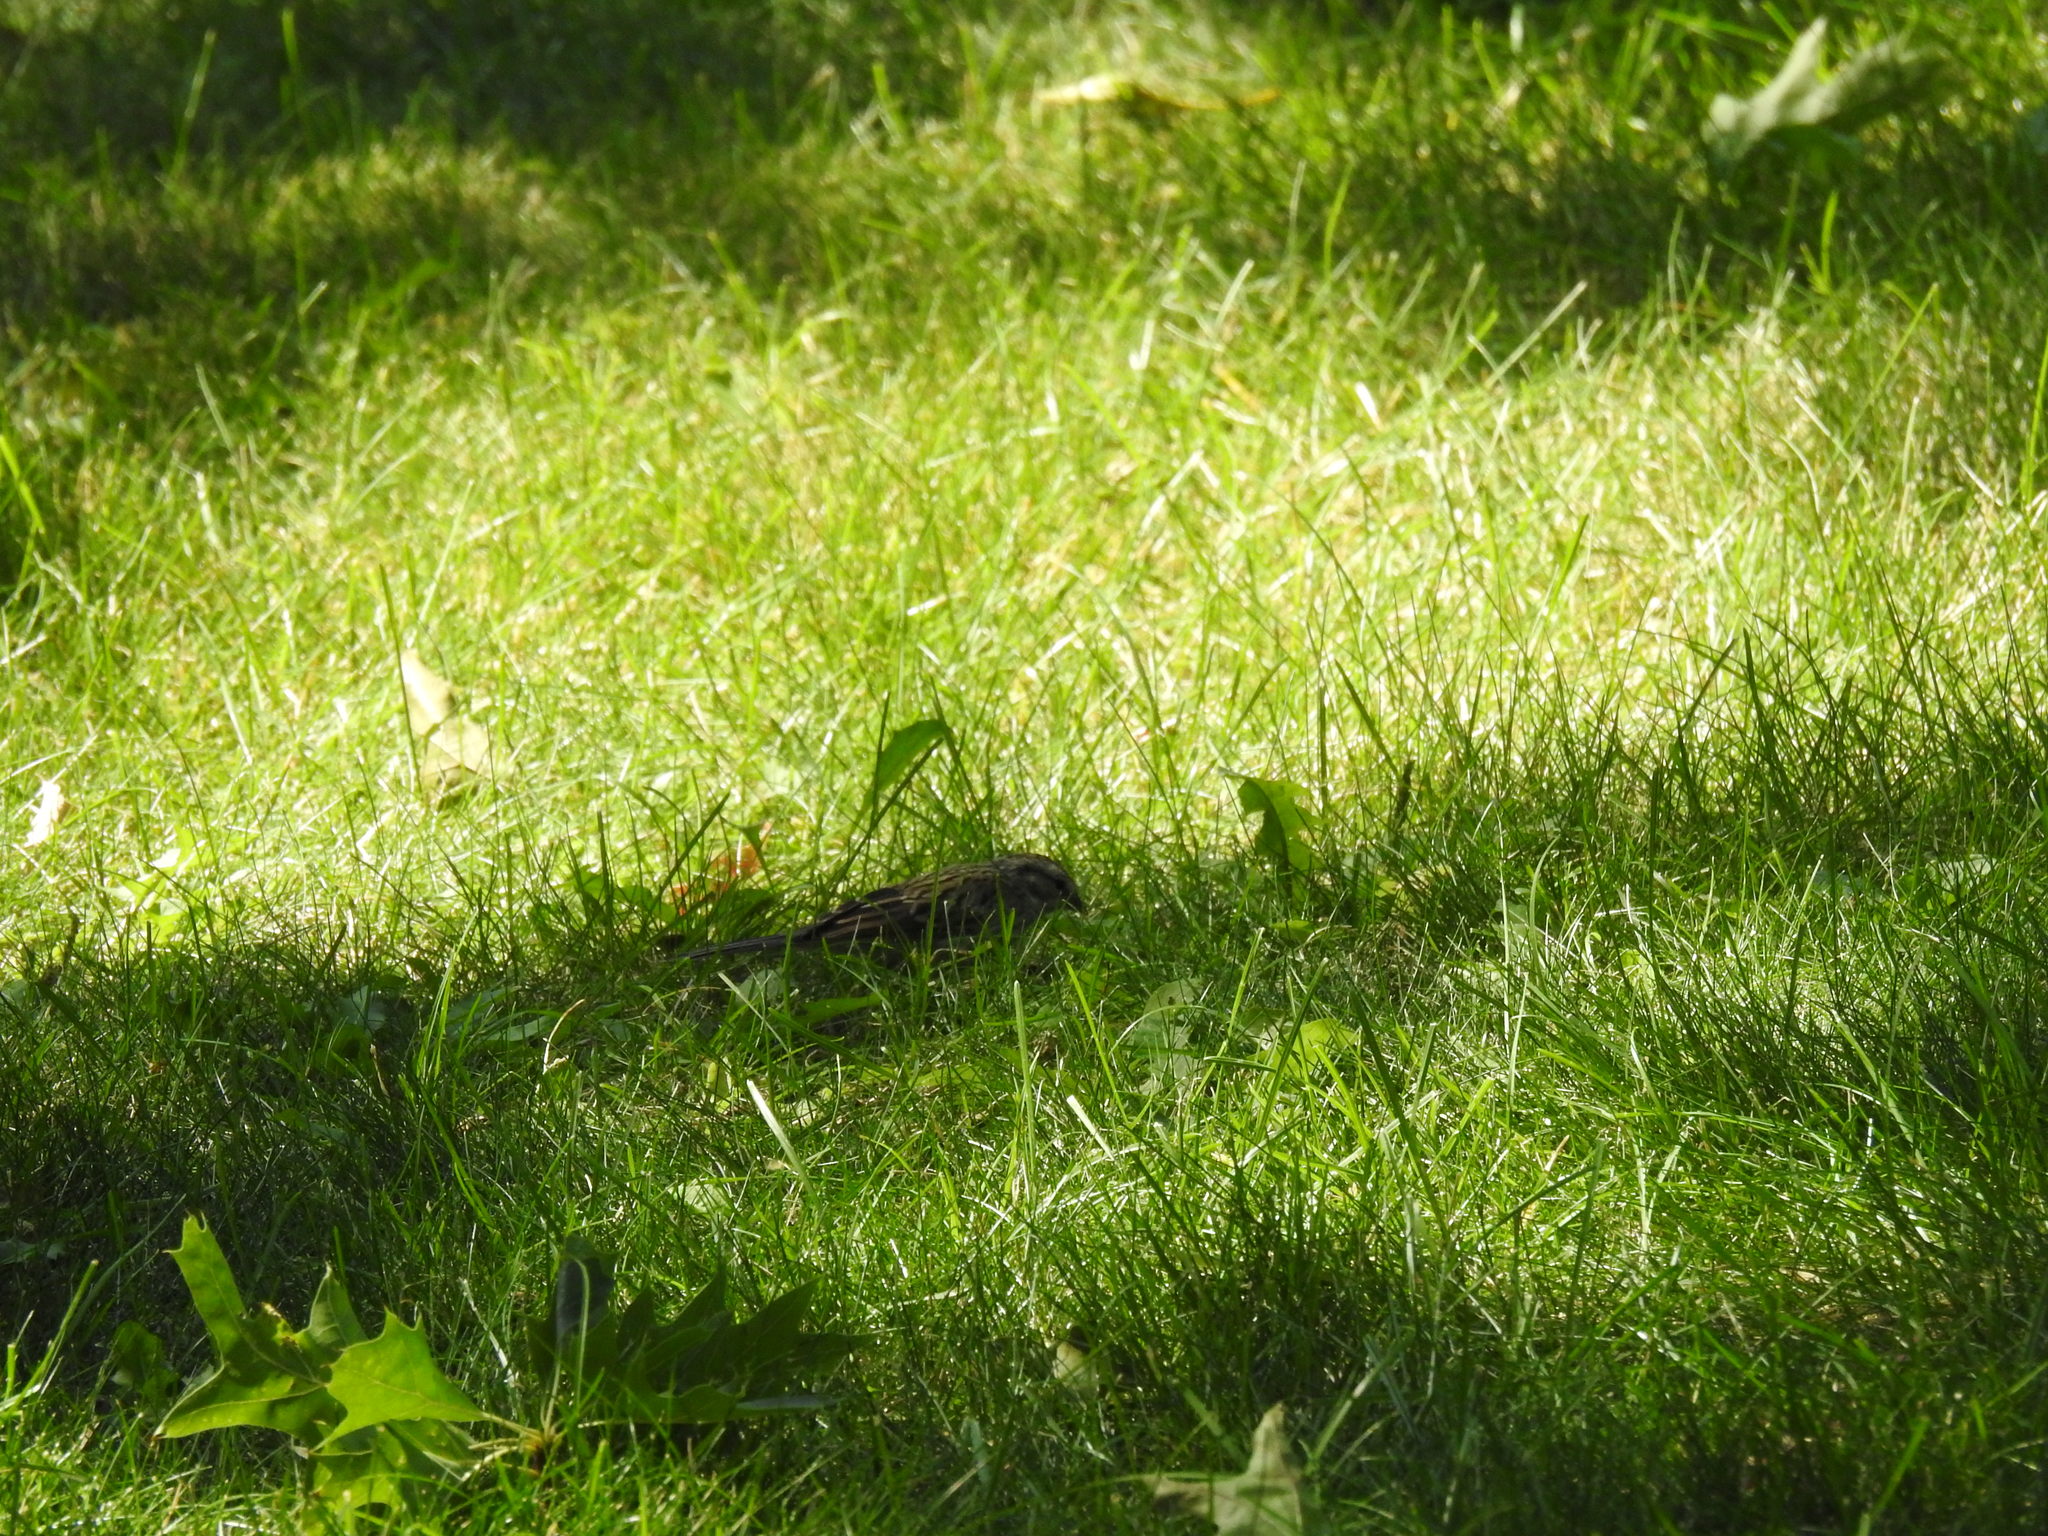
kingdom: Animalia
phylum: Chordata
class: Aves
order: Passeriformes
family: Passerellidae
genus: Spizella
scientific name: Spizella passerina
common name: Chipping sparrow
